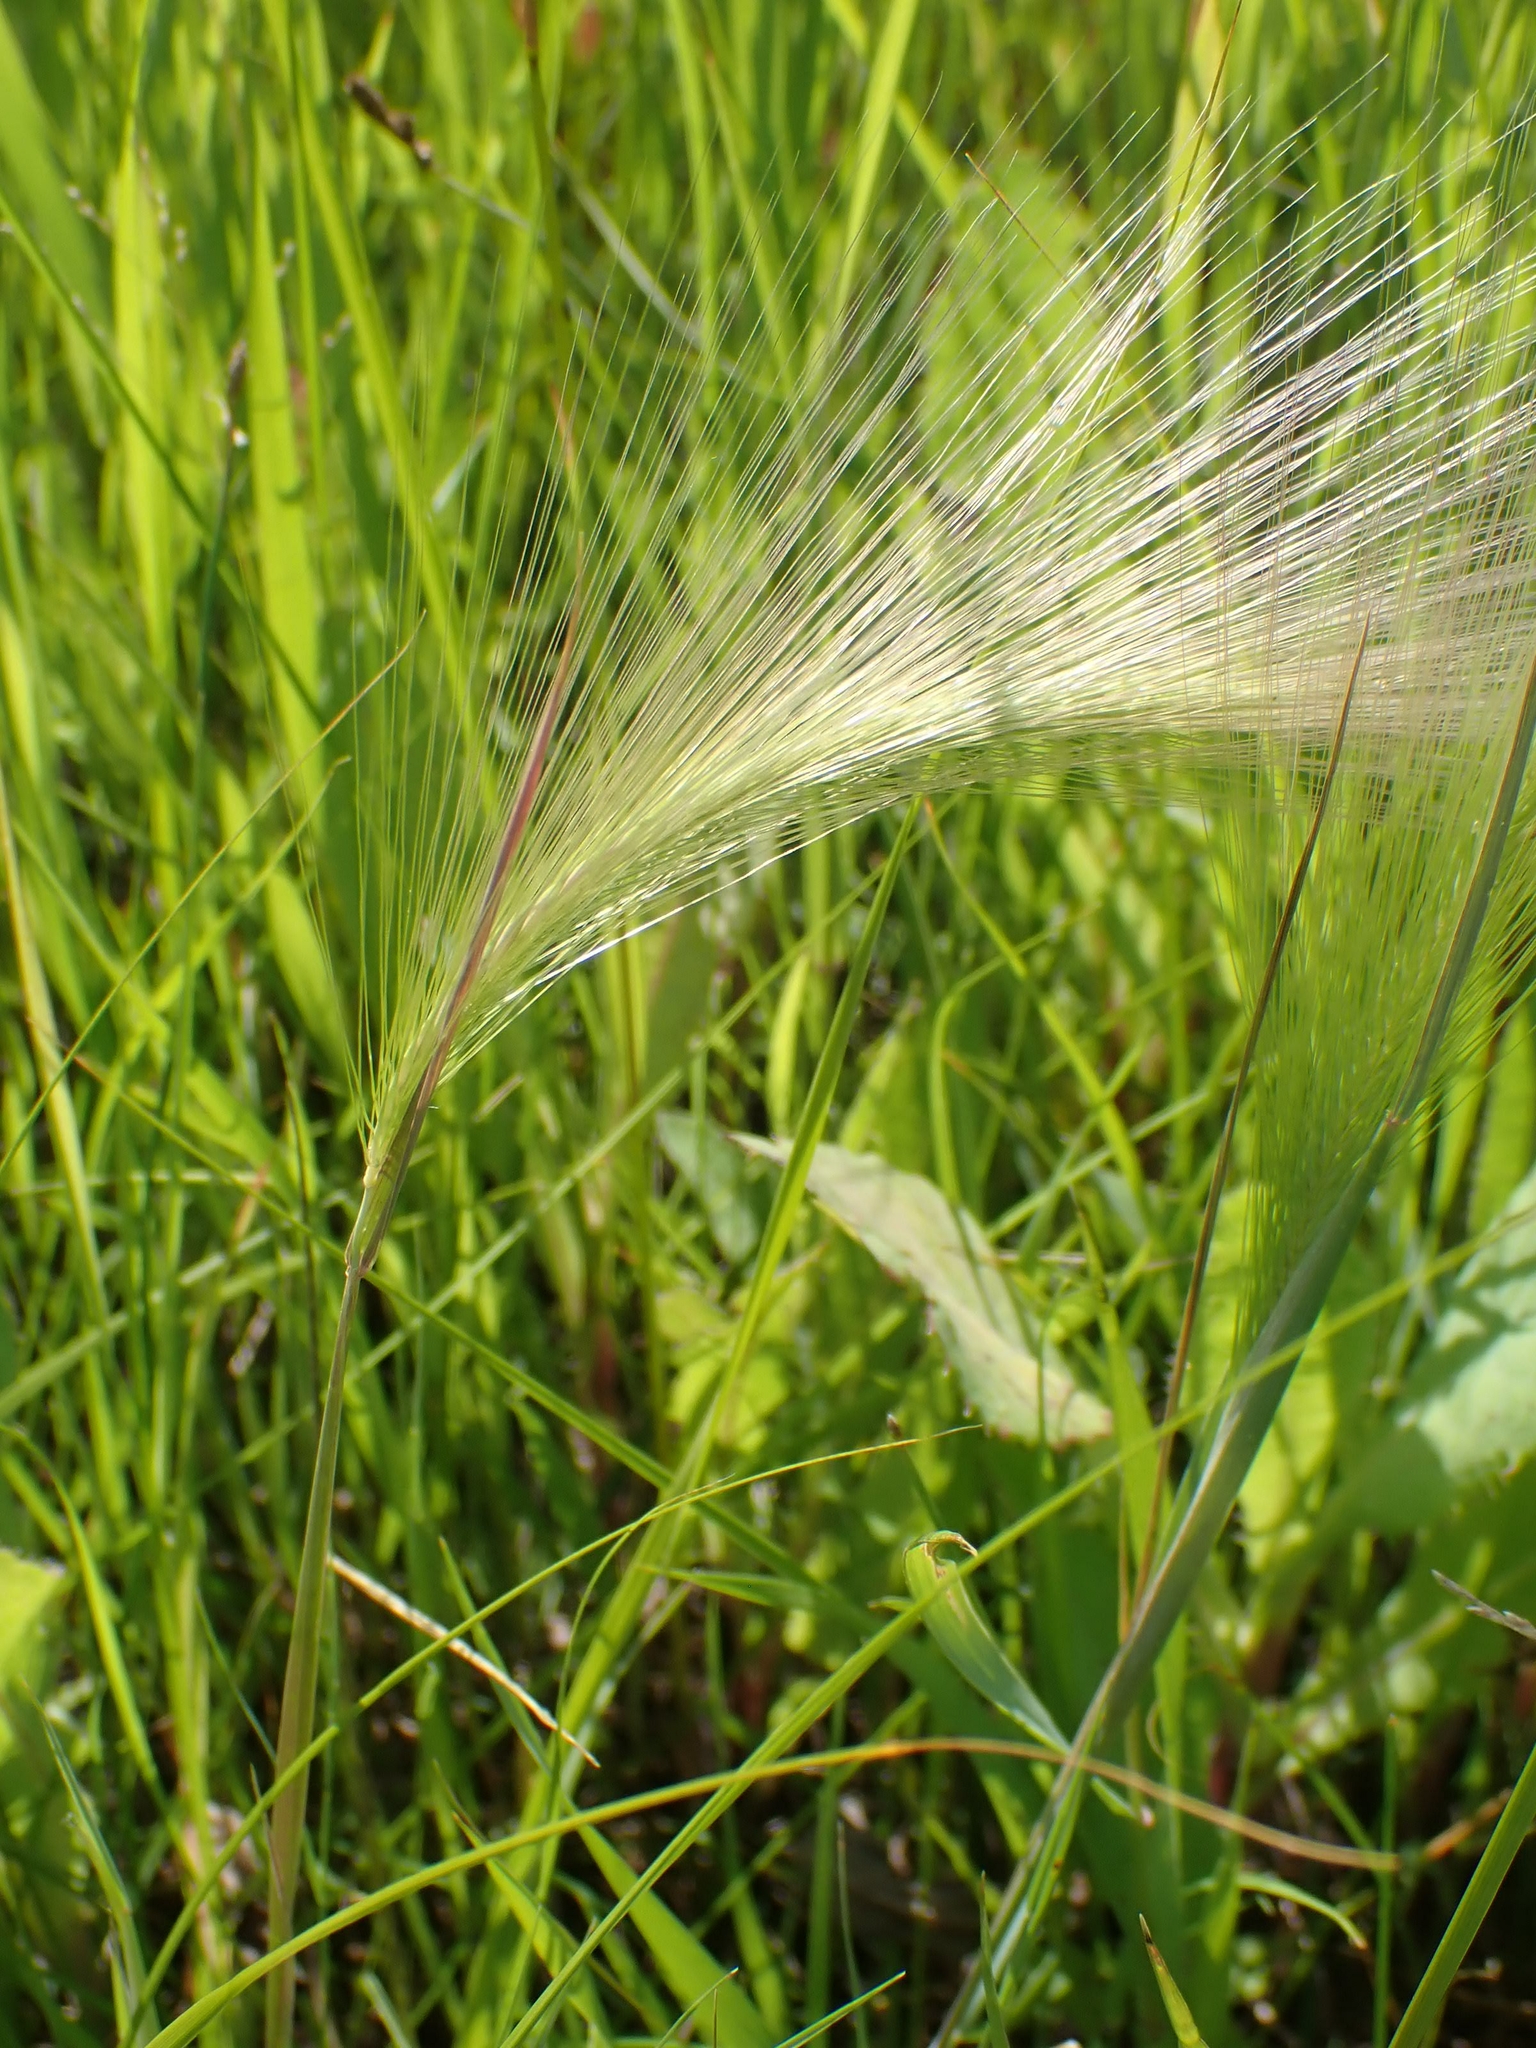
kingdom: Plantae
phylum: Tracheophyta
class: Liliopsida
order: Poales
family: Poaceae
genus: Hordeum
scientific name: Hordeum jubatum
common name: Foxtail barley
